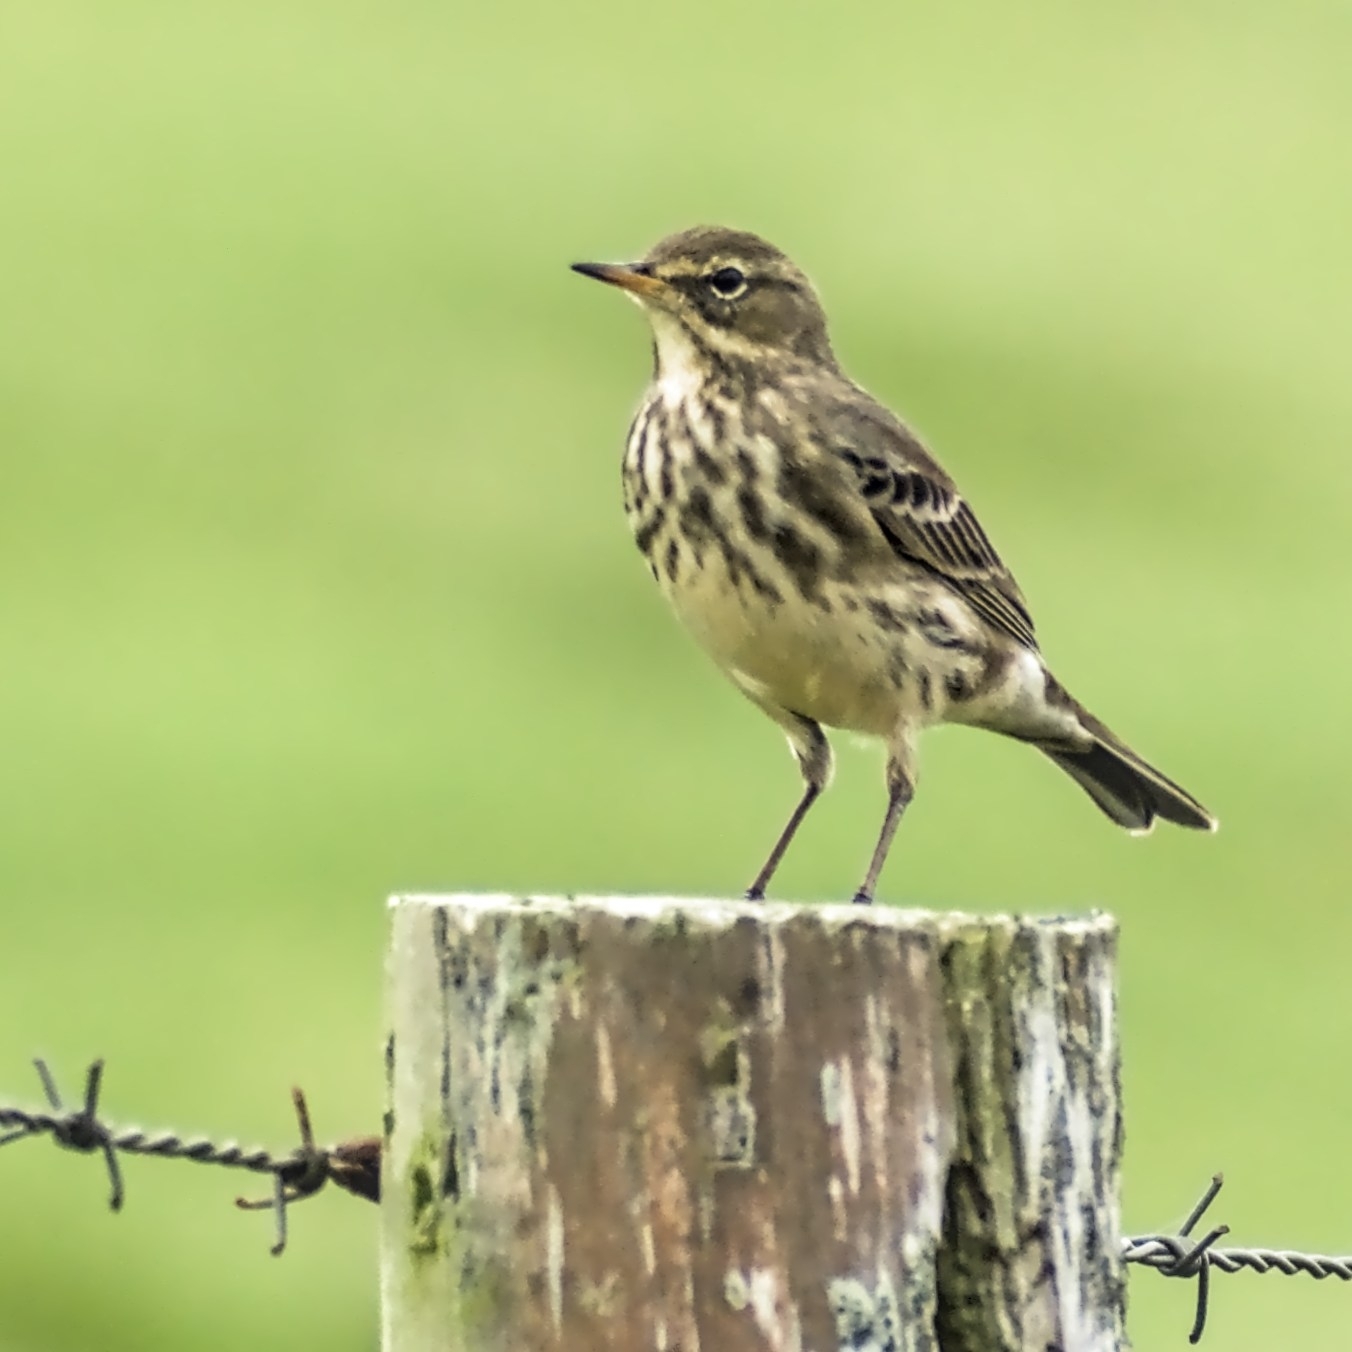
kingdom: Animalia
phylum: Chordata
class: Aves
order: Passeriformes
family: Motacillidae
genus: Anthus
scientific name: Anthus petrosus
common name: Eurasian rock pipit
